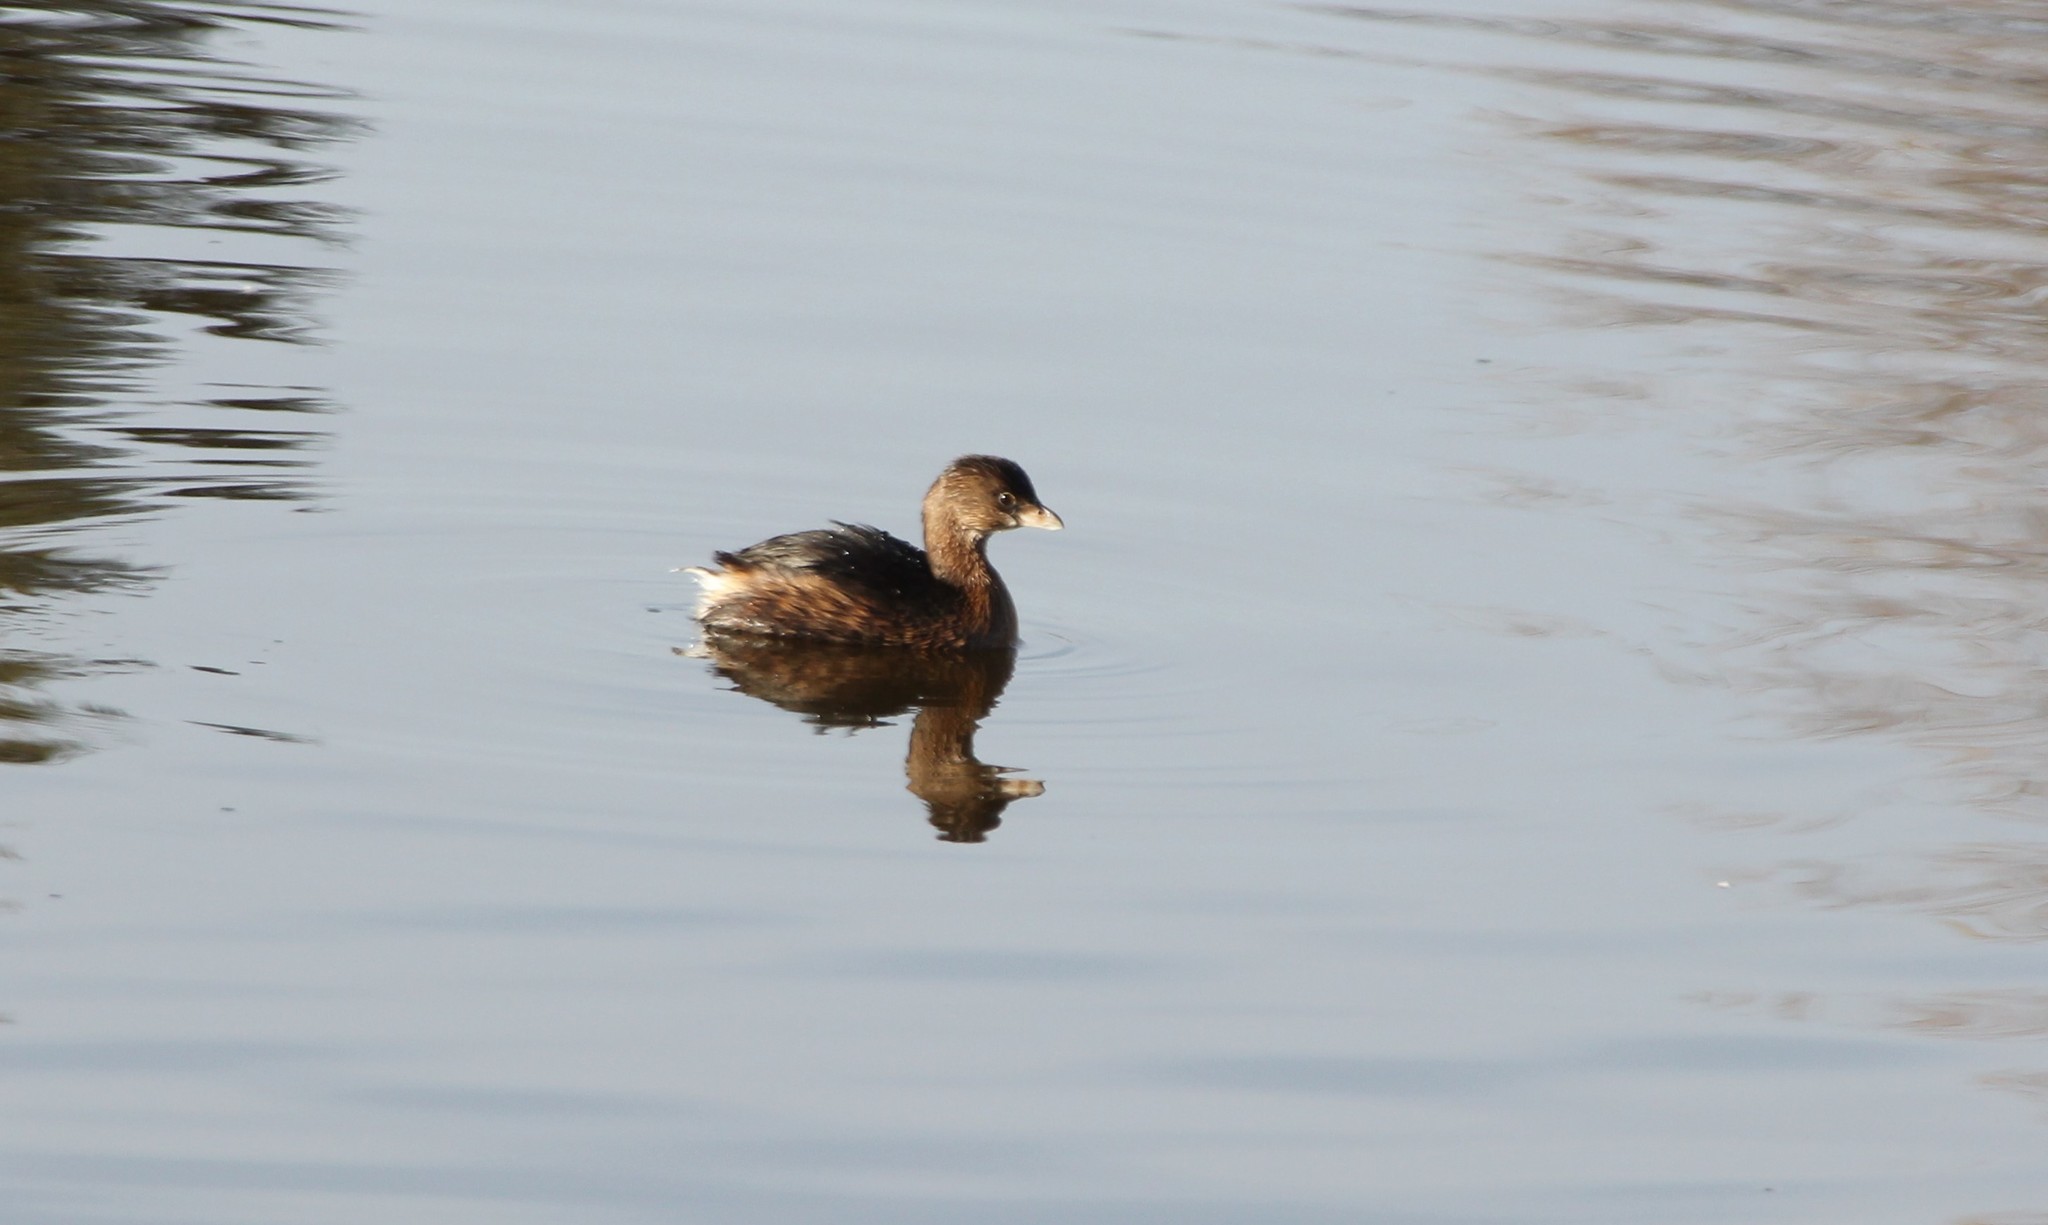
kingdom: Animalia
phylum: Chordata
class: Aves
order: Podicipediformes
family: Podicipedidae
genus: Podilymbus
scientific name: Podilymbus podiceps
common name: Pied-billed grebe
